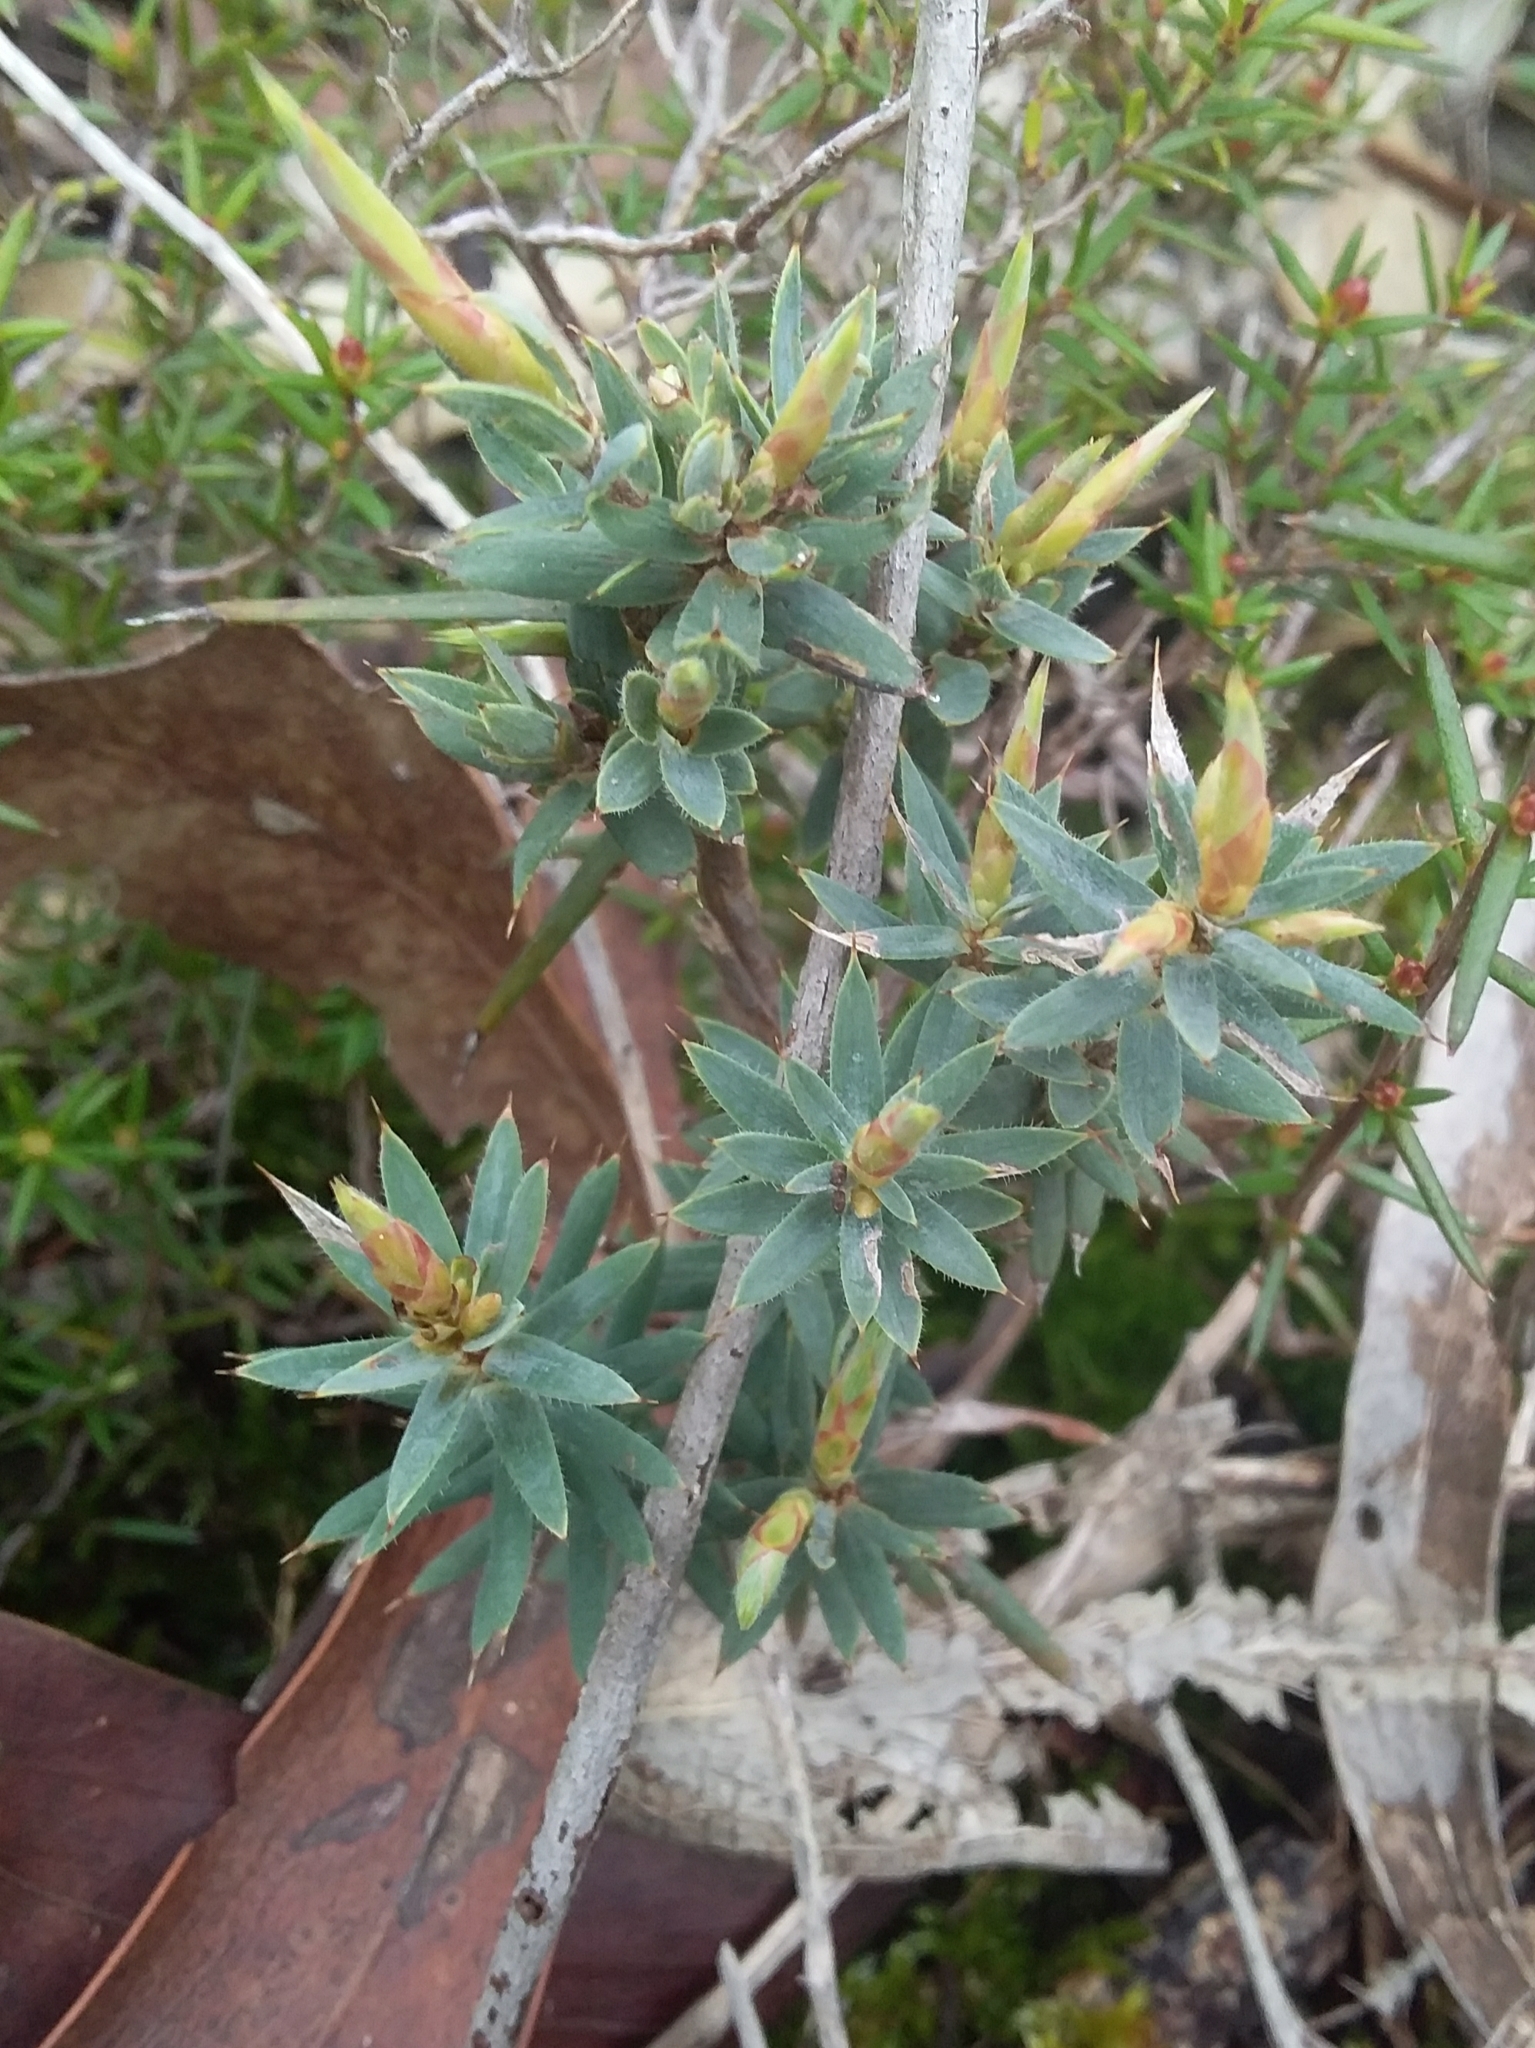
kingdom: Plantae
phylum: Tracheophyta
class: Magnoliopsida
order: Ericales
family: Ericaceae
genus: Styphelia
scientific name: Styphelia humifusa
